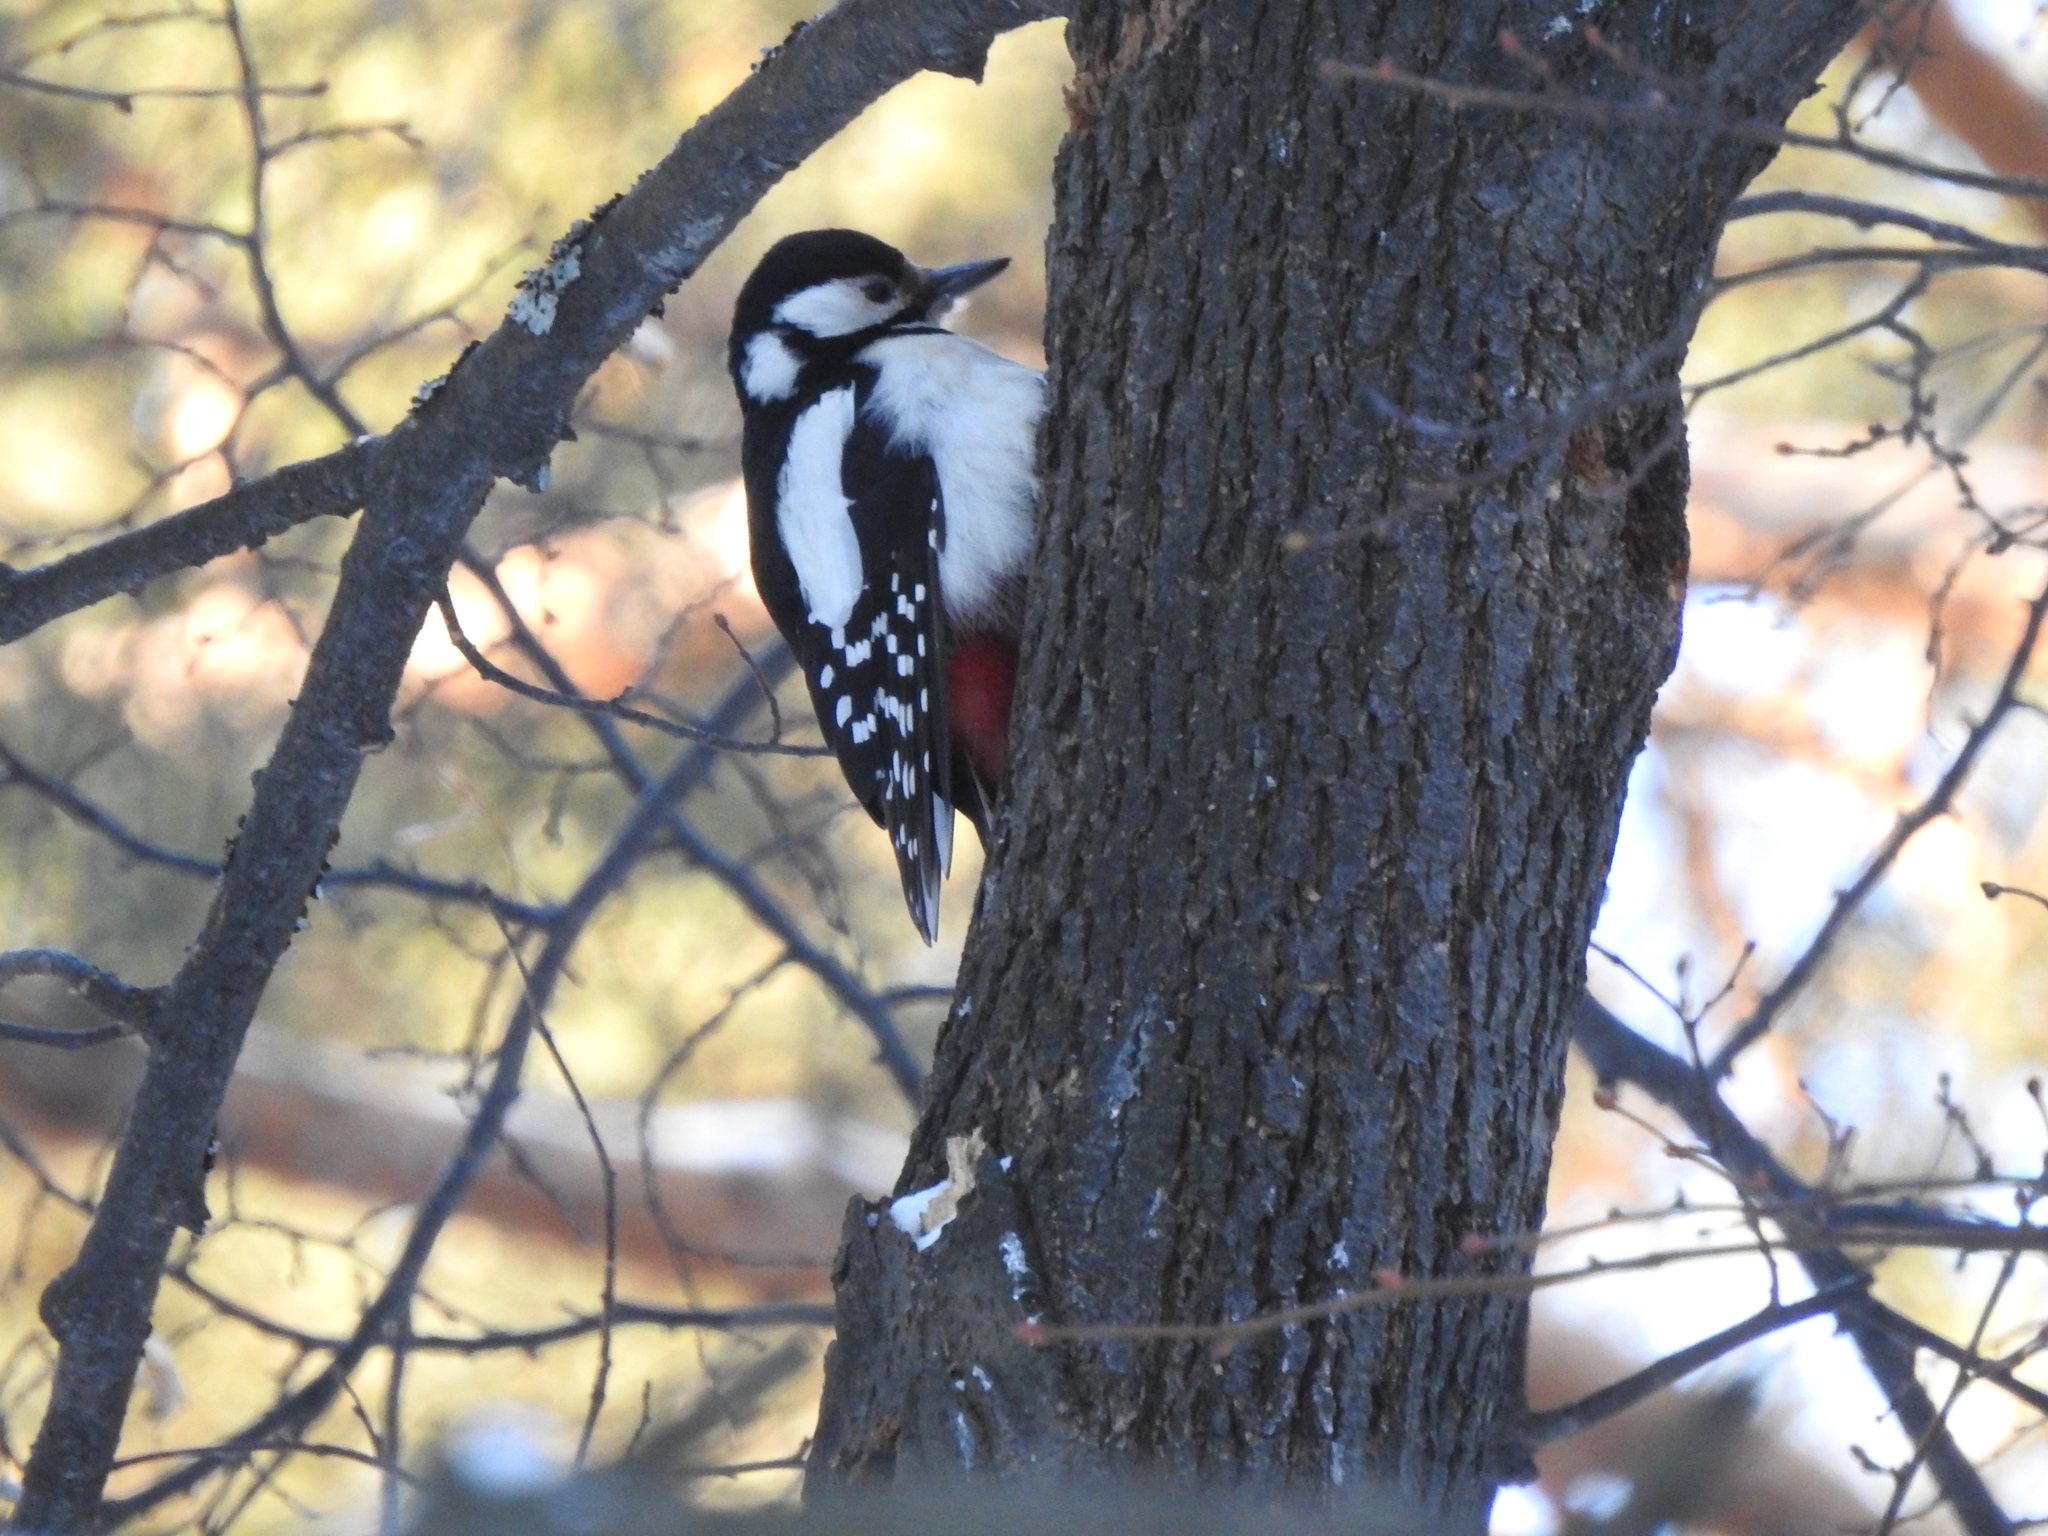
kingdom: Animalia
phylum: Chordata
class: Aves
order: Piciformes
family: Picidae
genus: Dendrocopos
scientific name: Dendrocopos major
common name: Great spotted woodpecker
